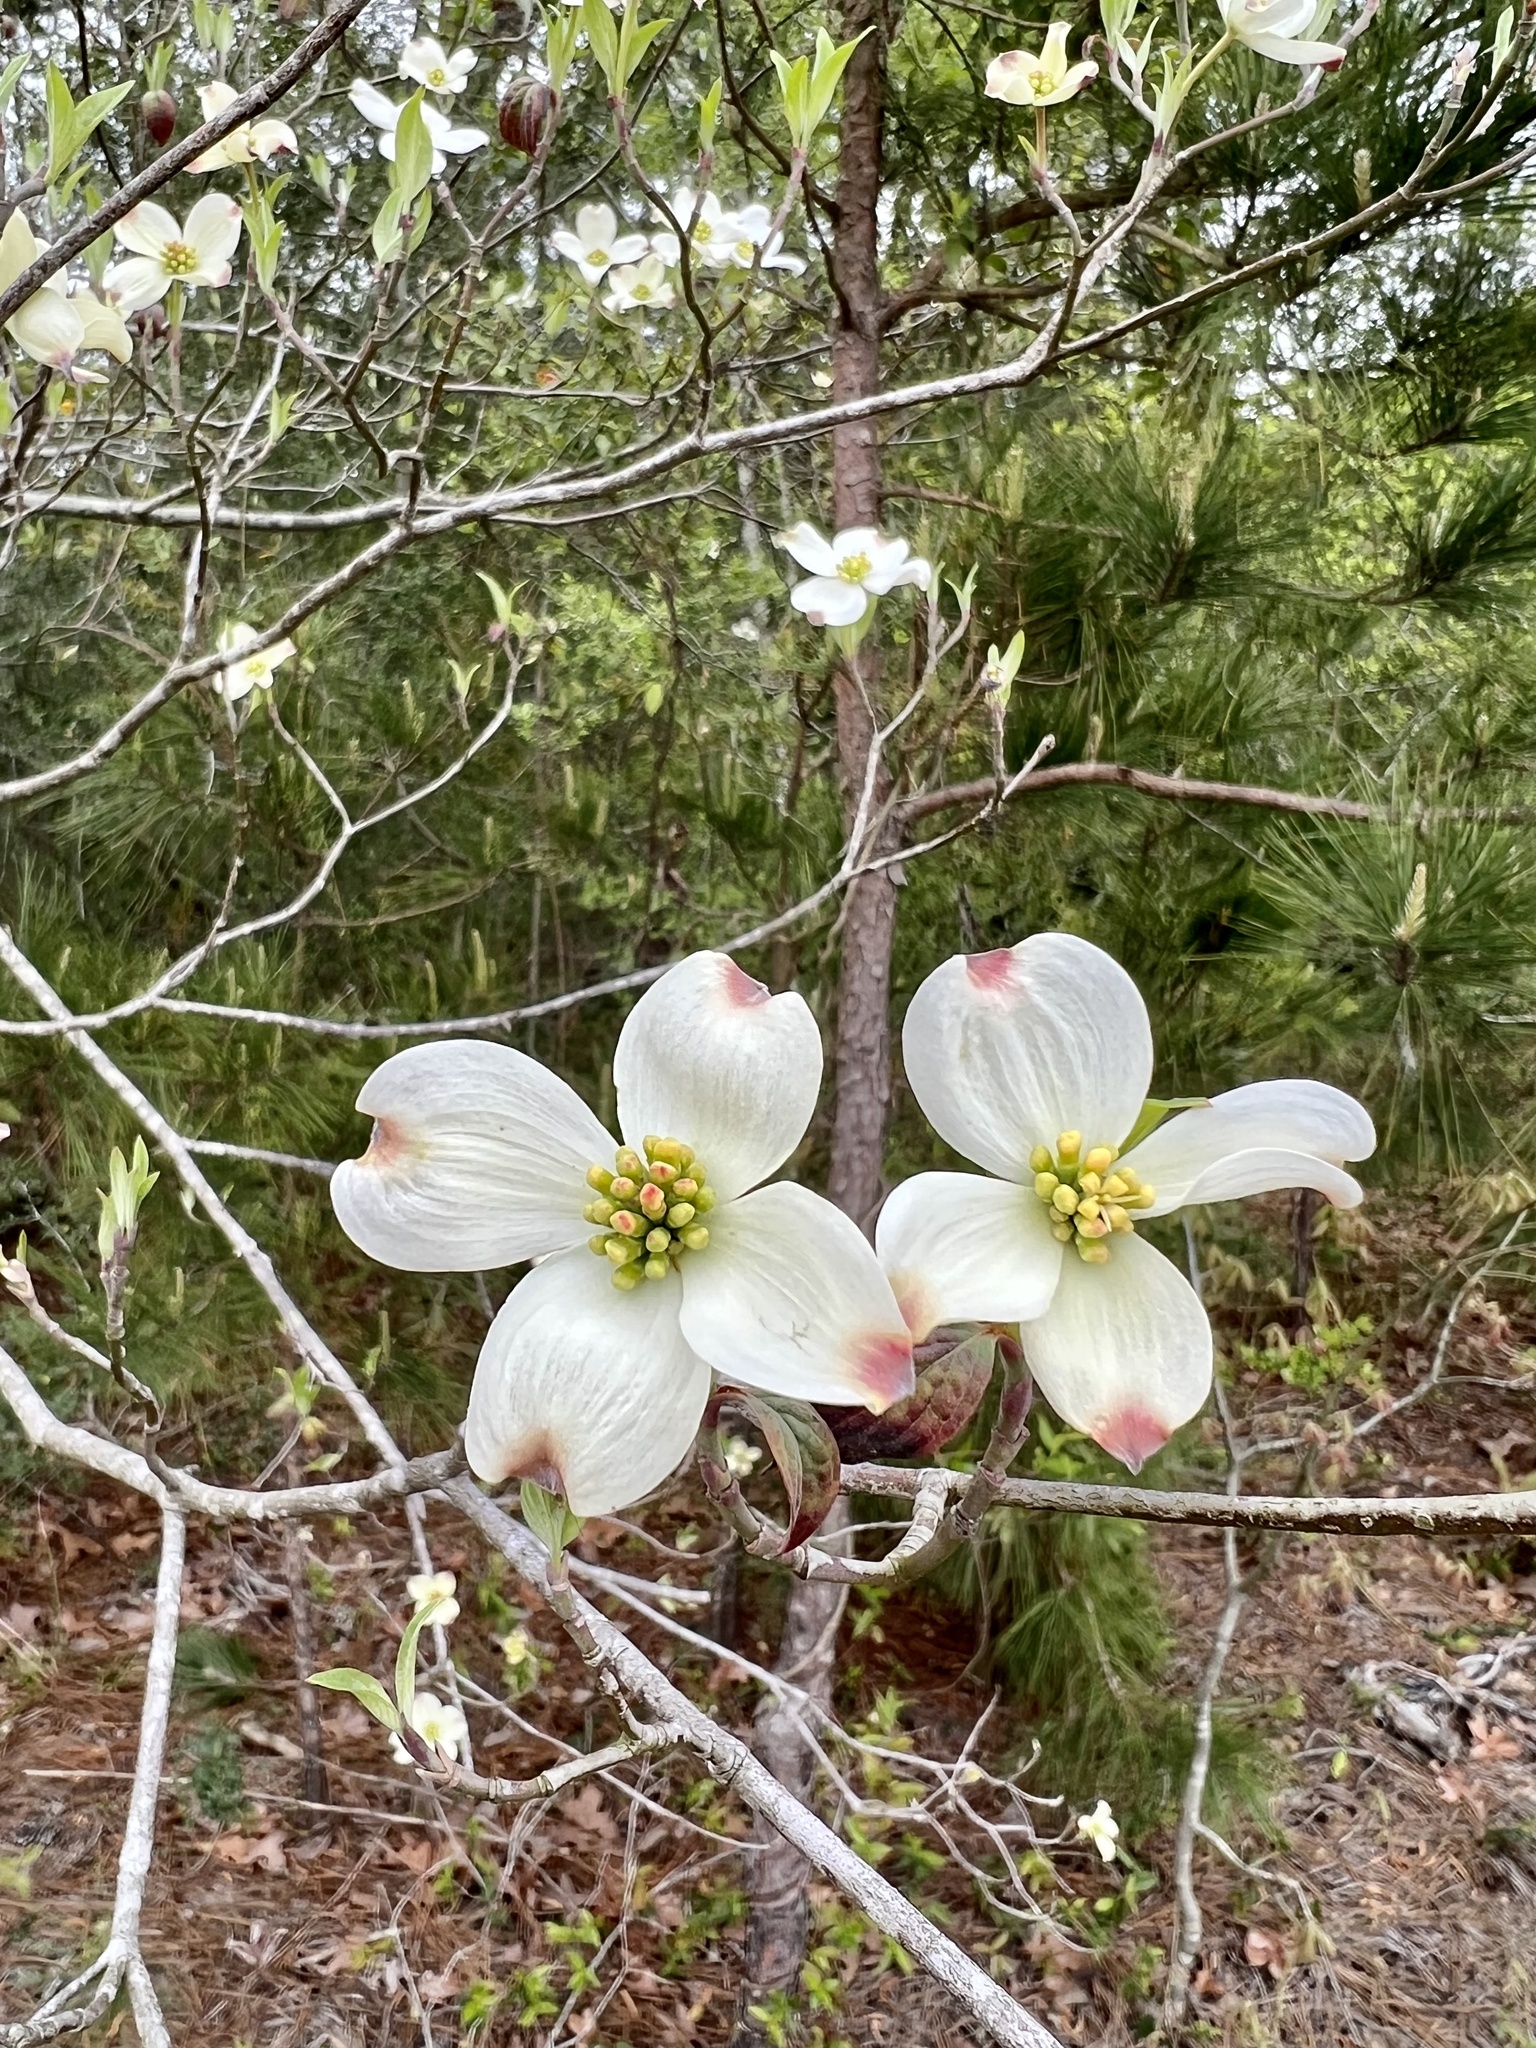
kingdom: Plantae
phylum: Tracheophyta
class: Magnoliopsida
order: Cornales
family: Cornaceae
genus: Cornus
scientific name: Cornus florida
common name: Flowering dogwood
